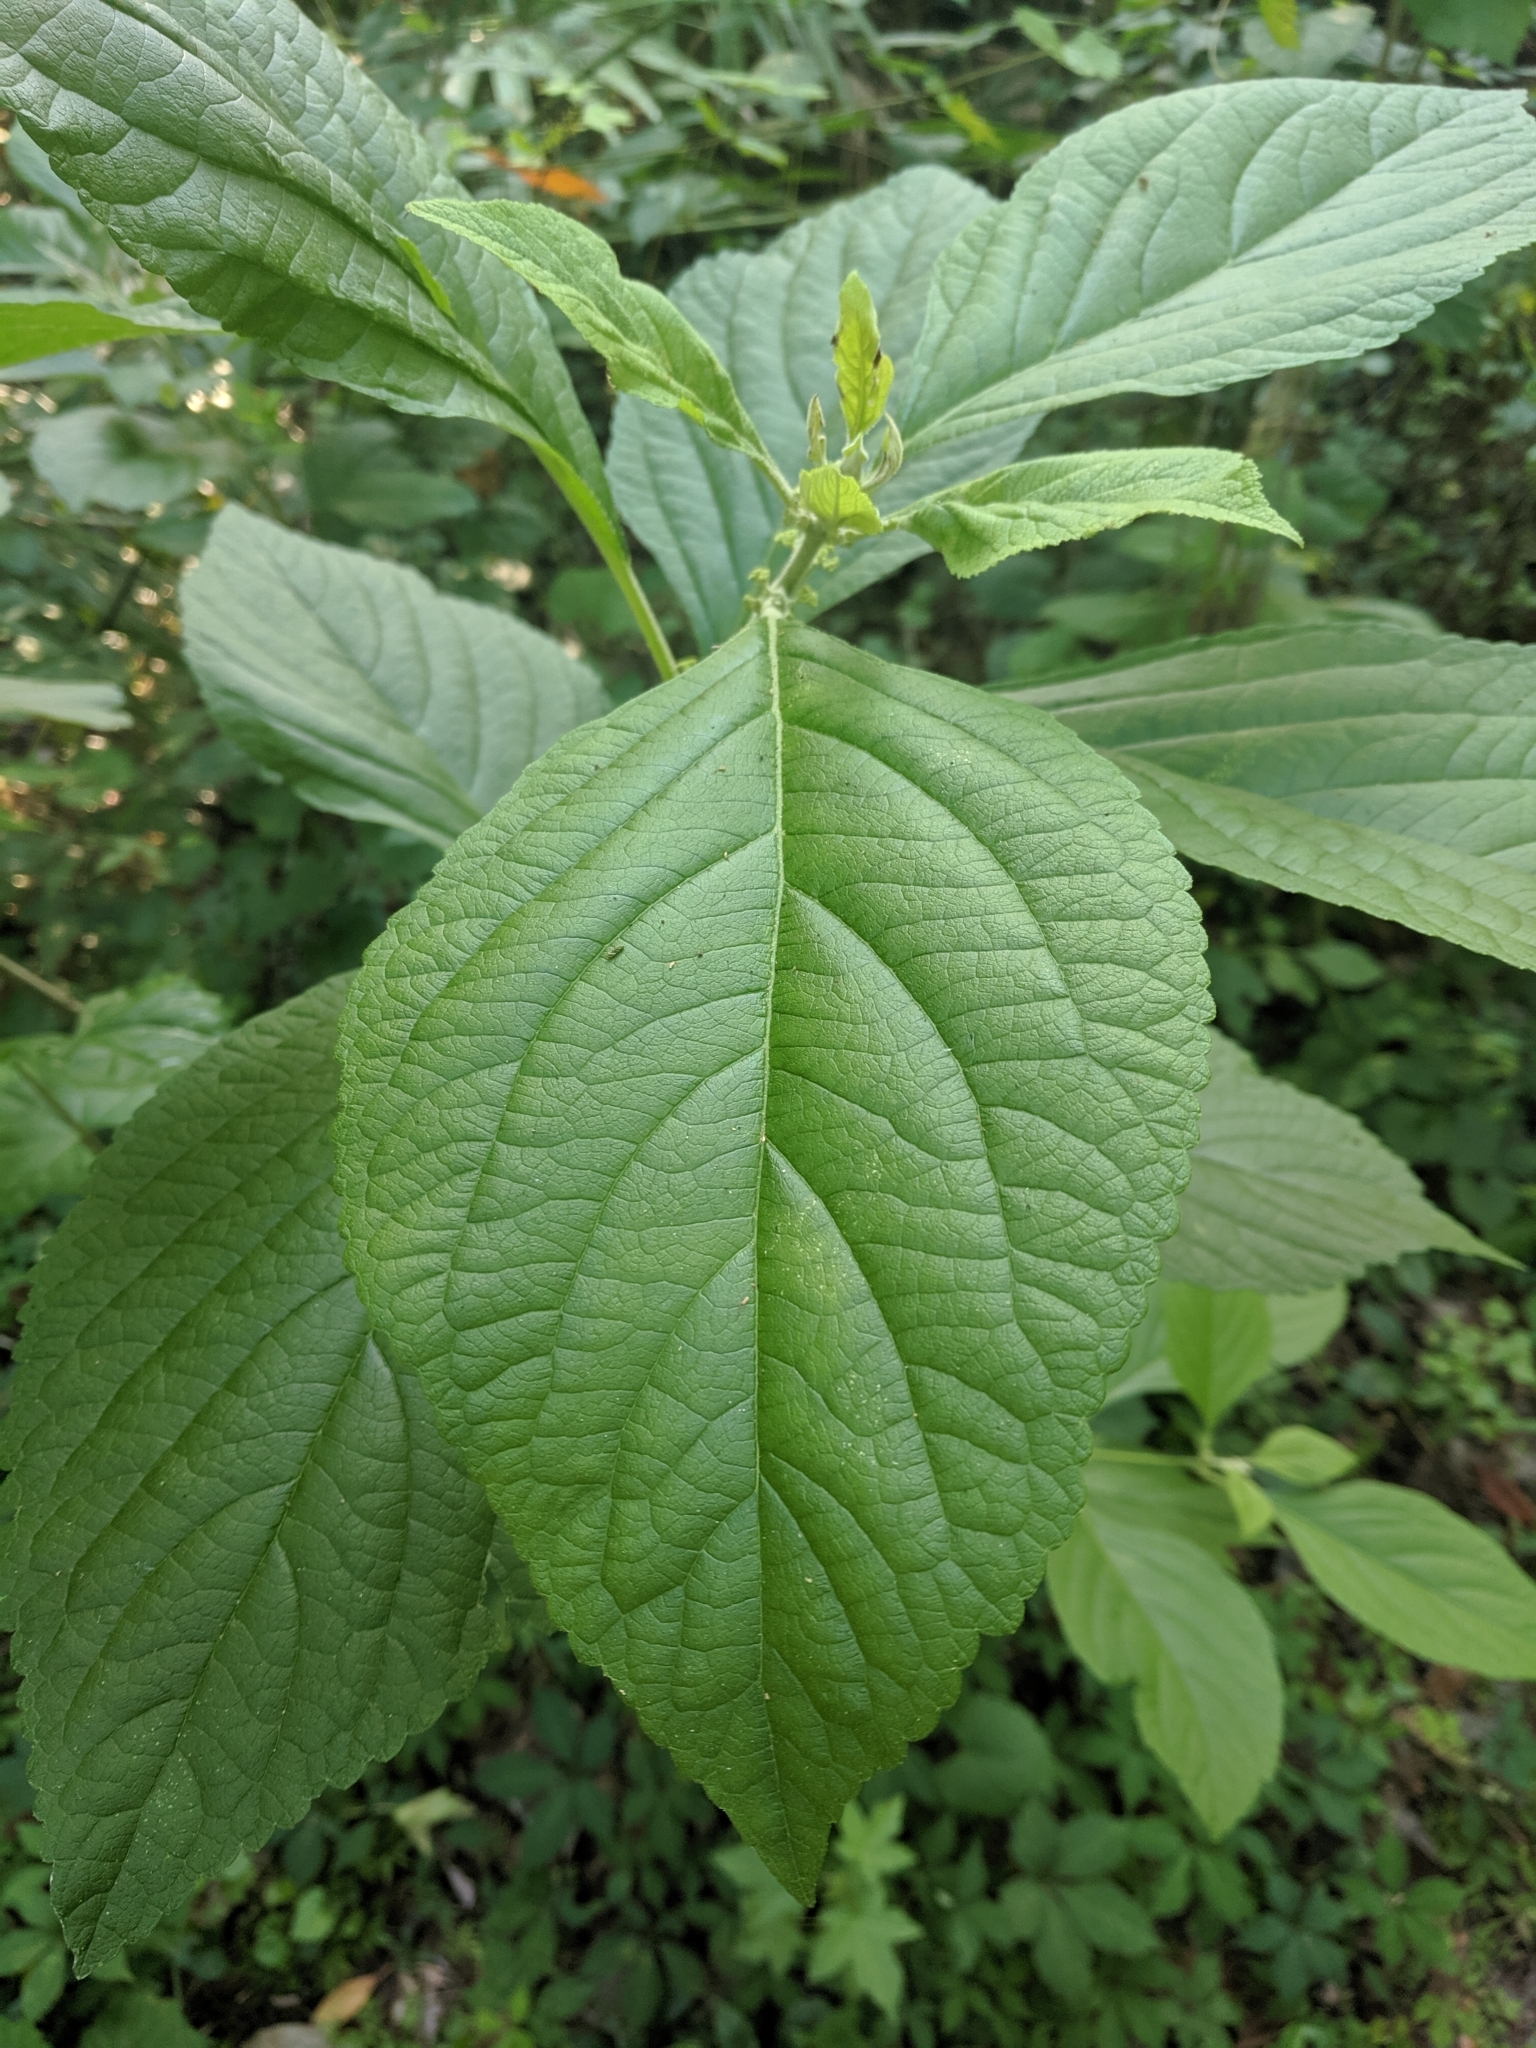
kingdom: Plantae
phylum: Tracheophyta
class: Magnoliopsida
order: Lamiales
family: Lamiaceae
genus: Callicarpa
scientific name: Callicarpa americana
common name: American beautyberry
